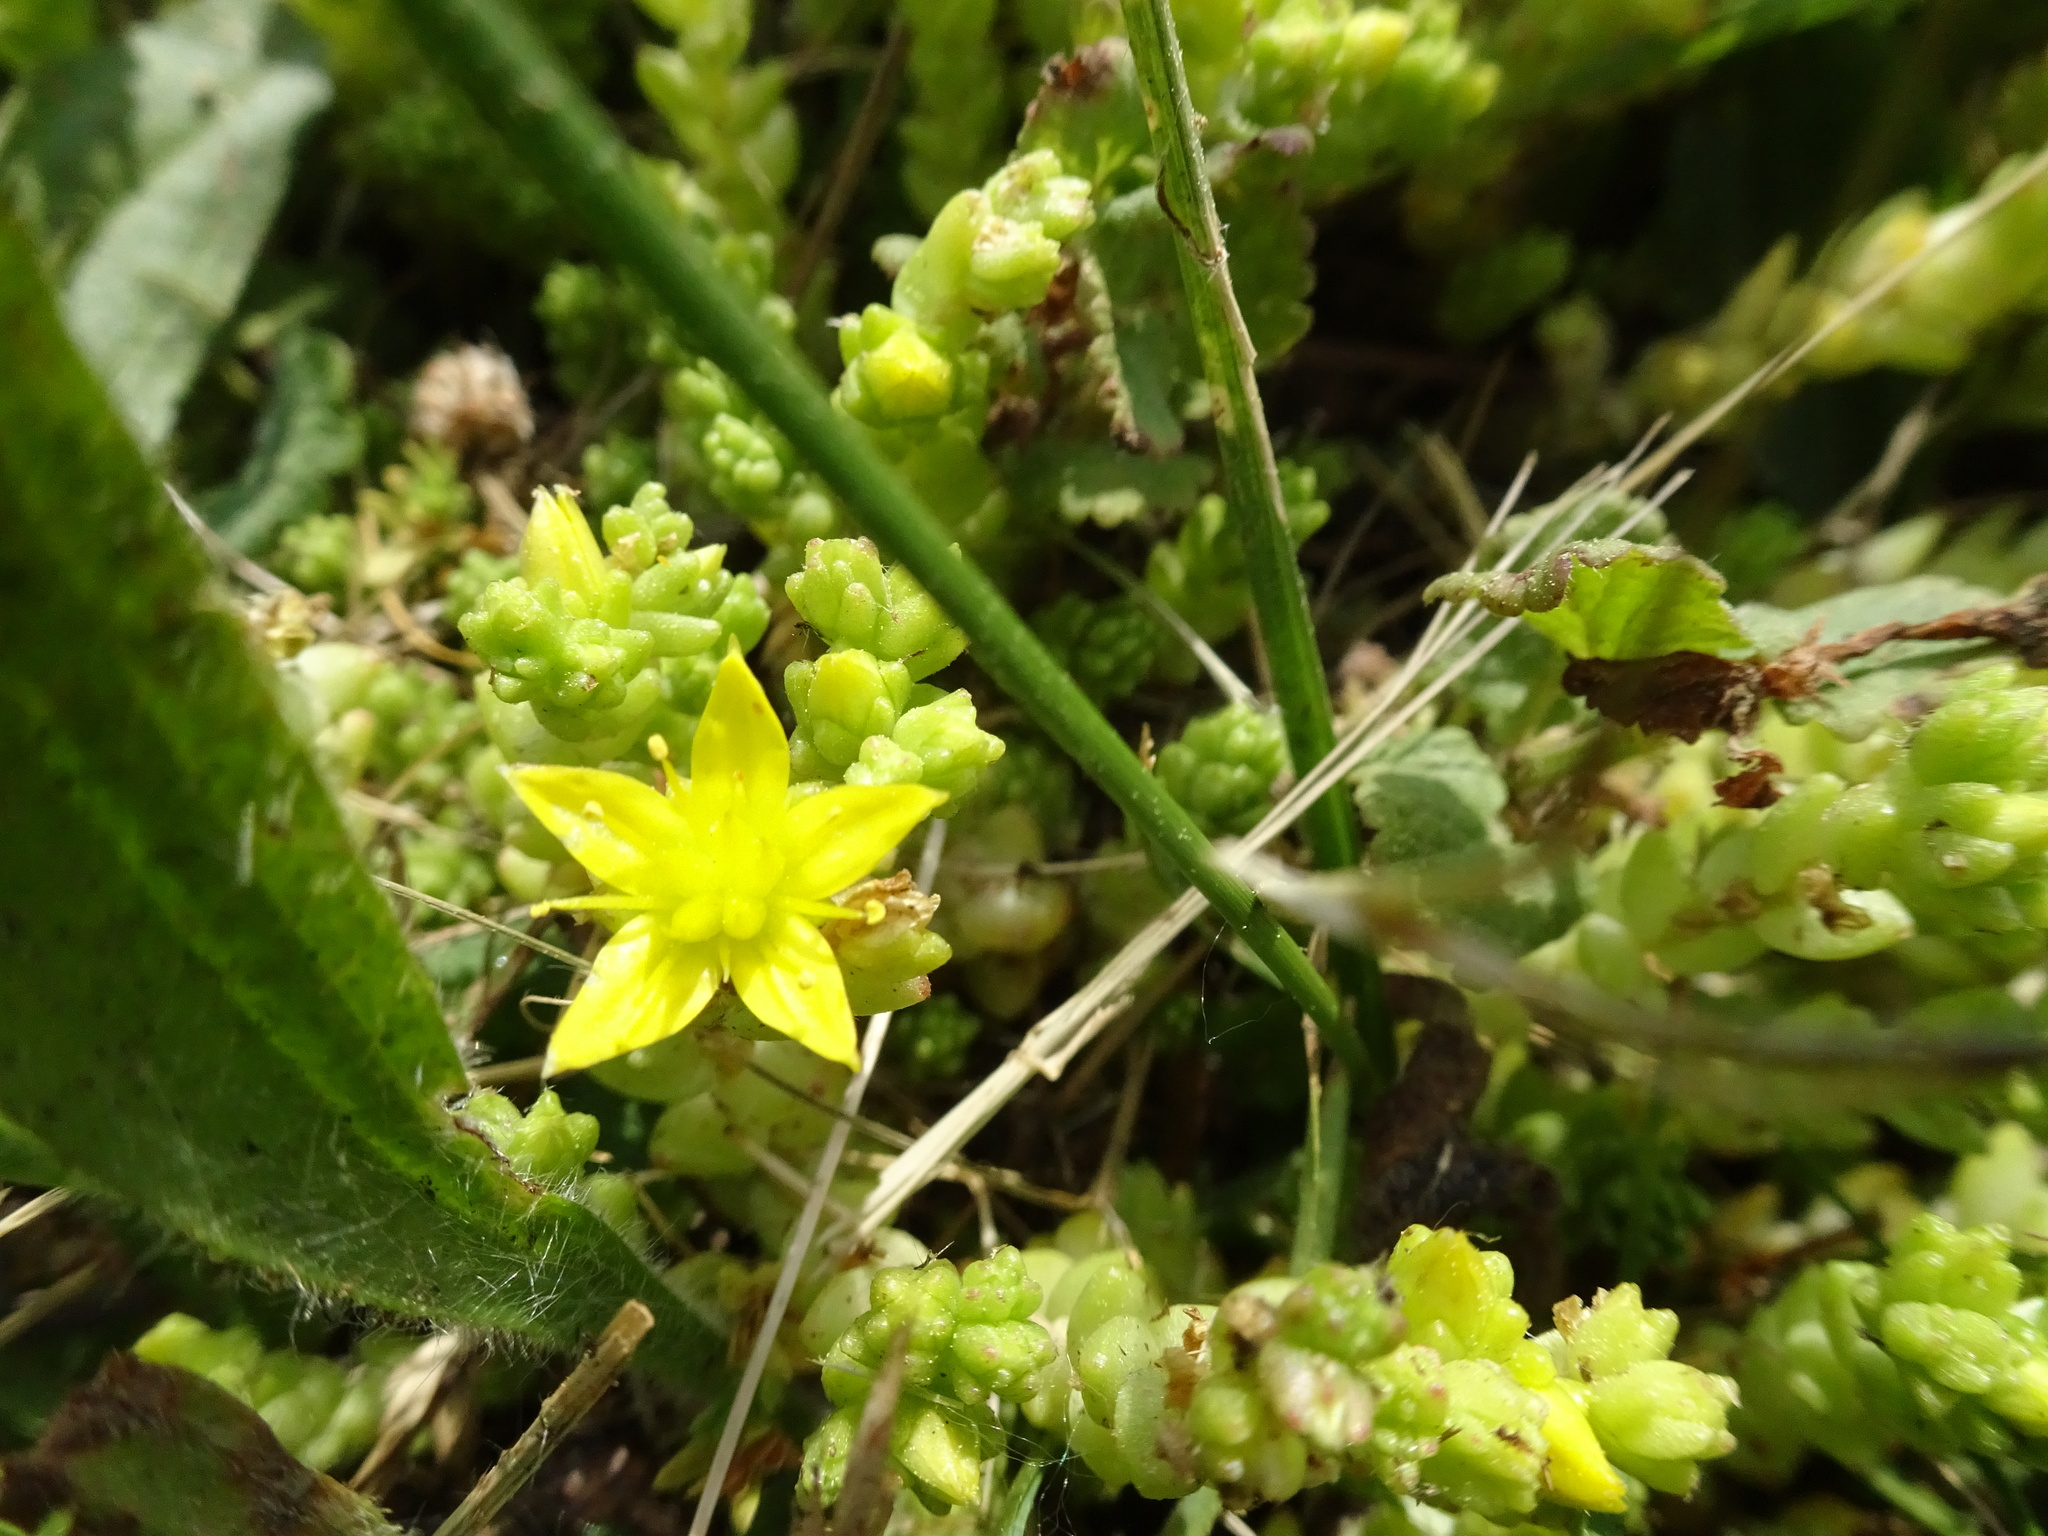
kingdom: Plantae
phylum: Tracheophyta
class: Magnoliopsida
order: Saxifragales
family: Crassulaceae
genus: Sedum
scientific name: Sedum acre
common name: Biting stonecrop
